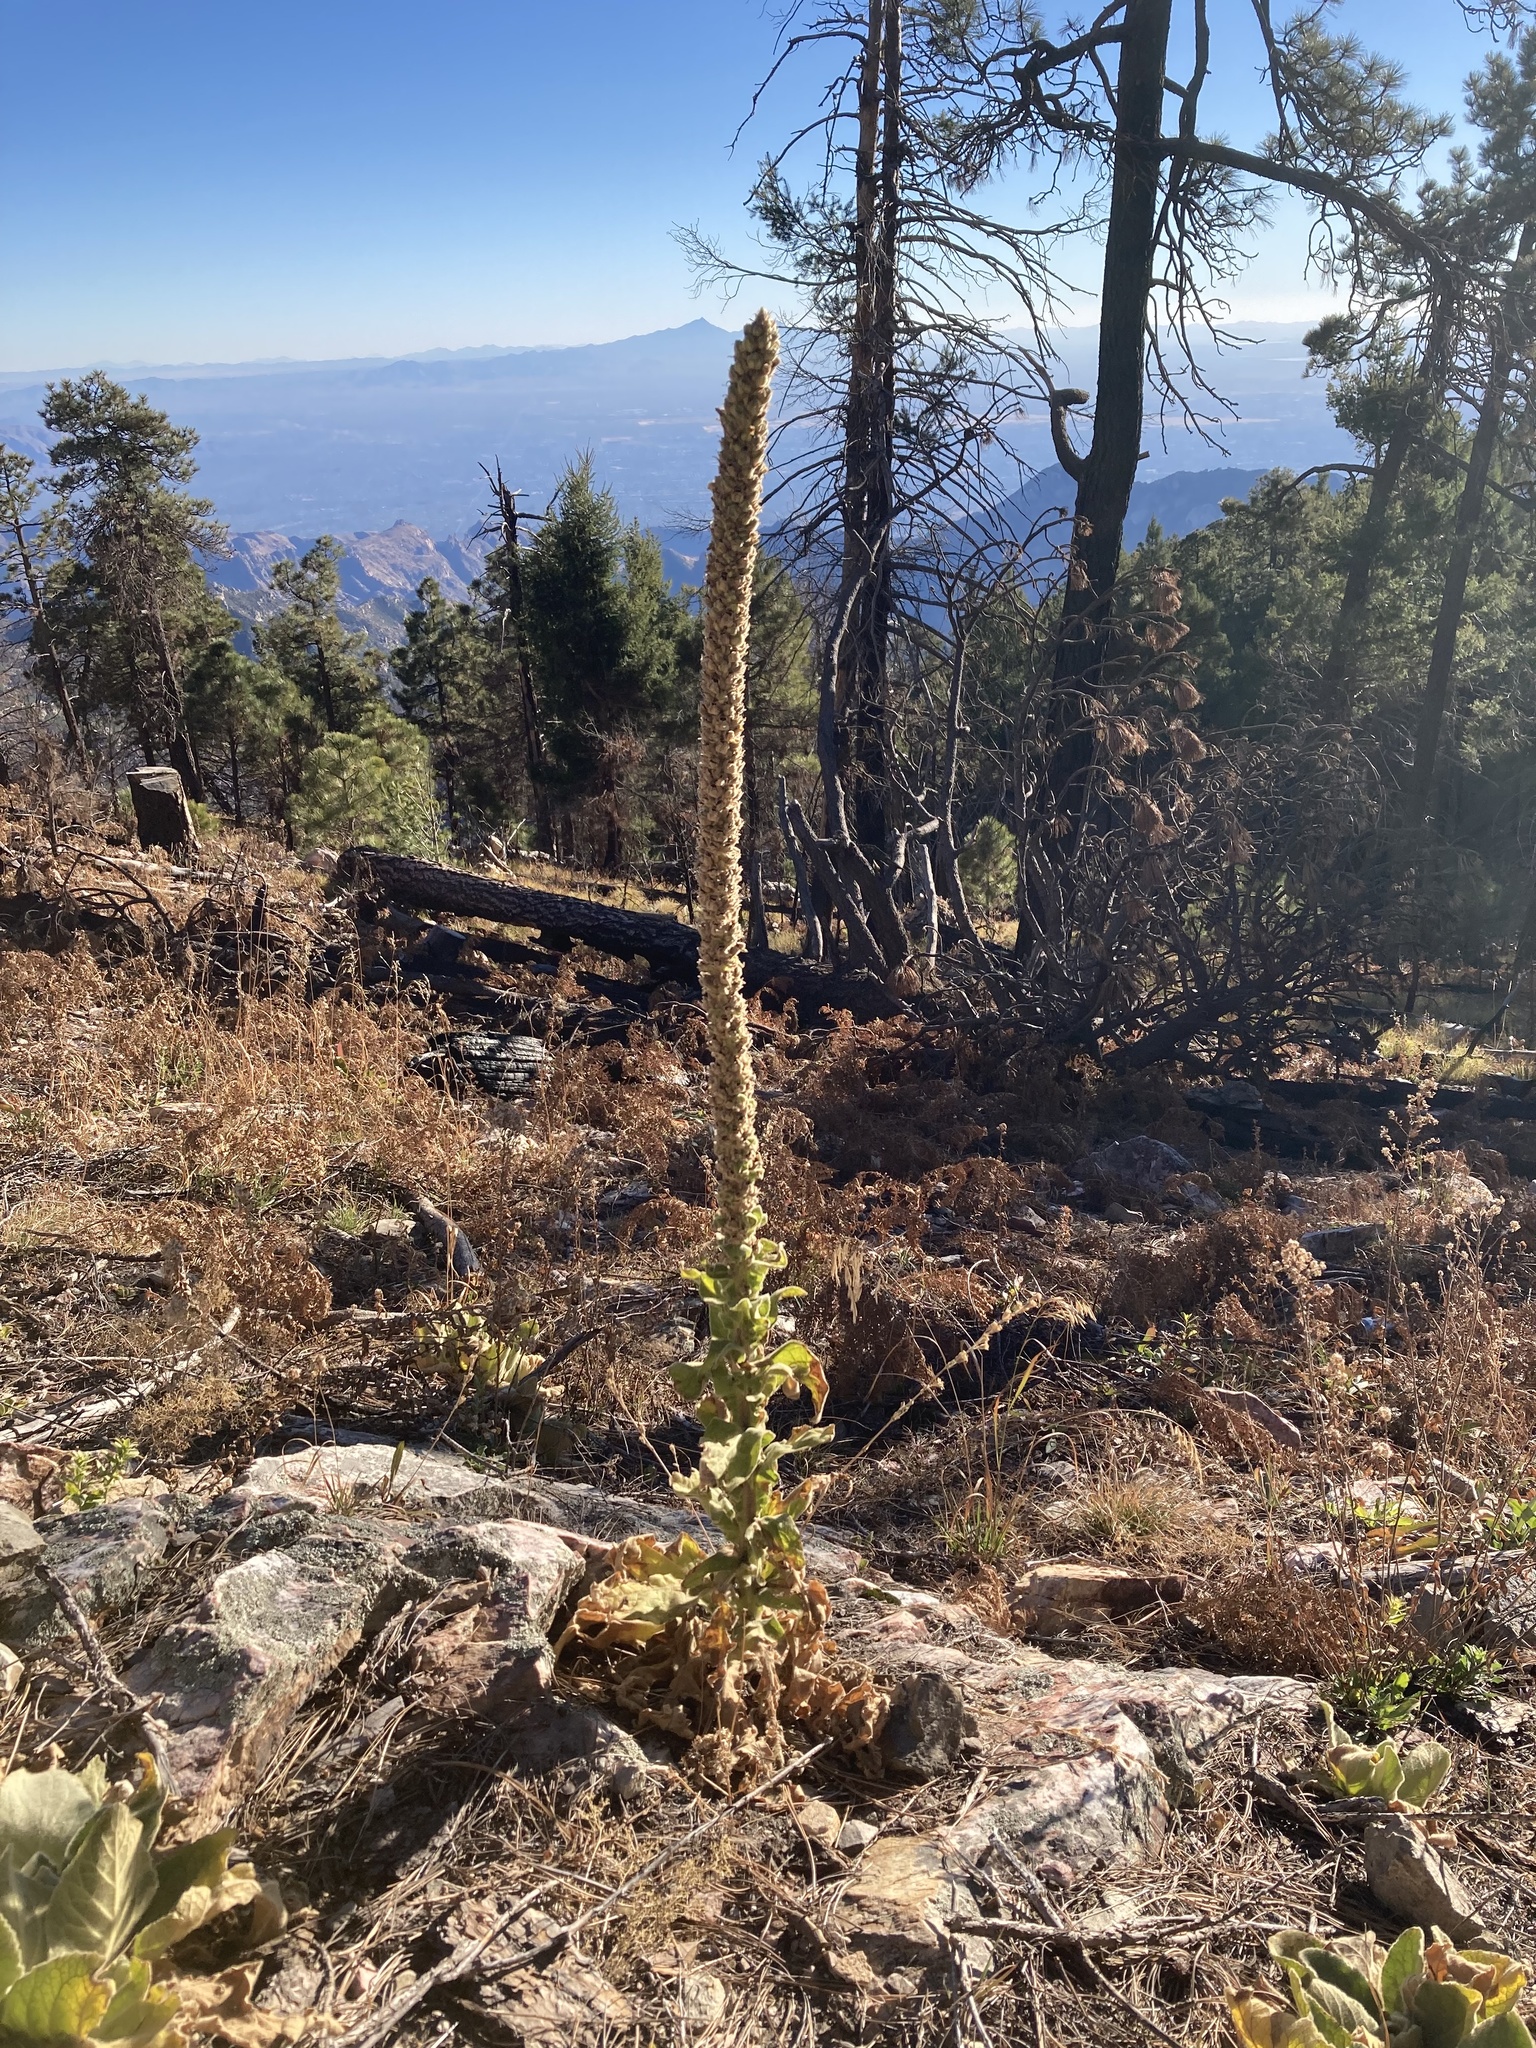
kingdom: Plantae
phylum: Tracheophyta
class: Magnoliopsida
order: Lamiales
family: Scrophulariaceae
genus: Verbascum
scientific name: Verbascum thapsus
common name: Common mullein
